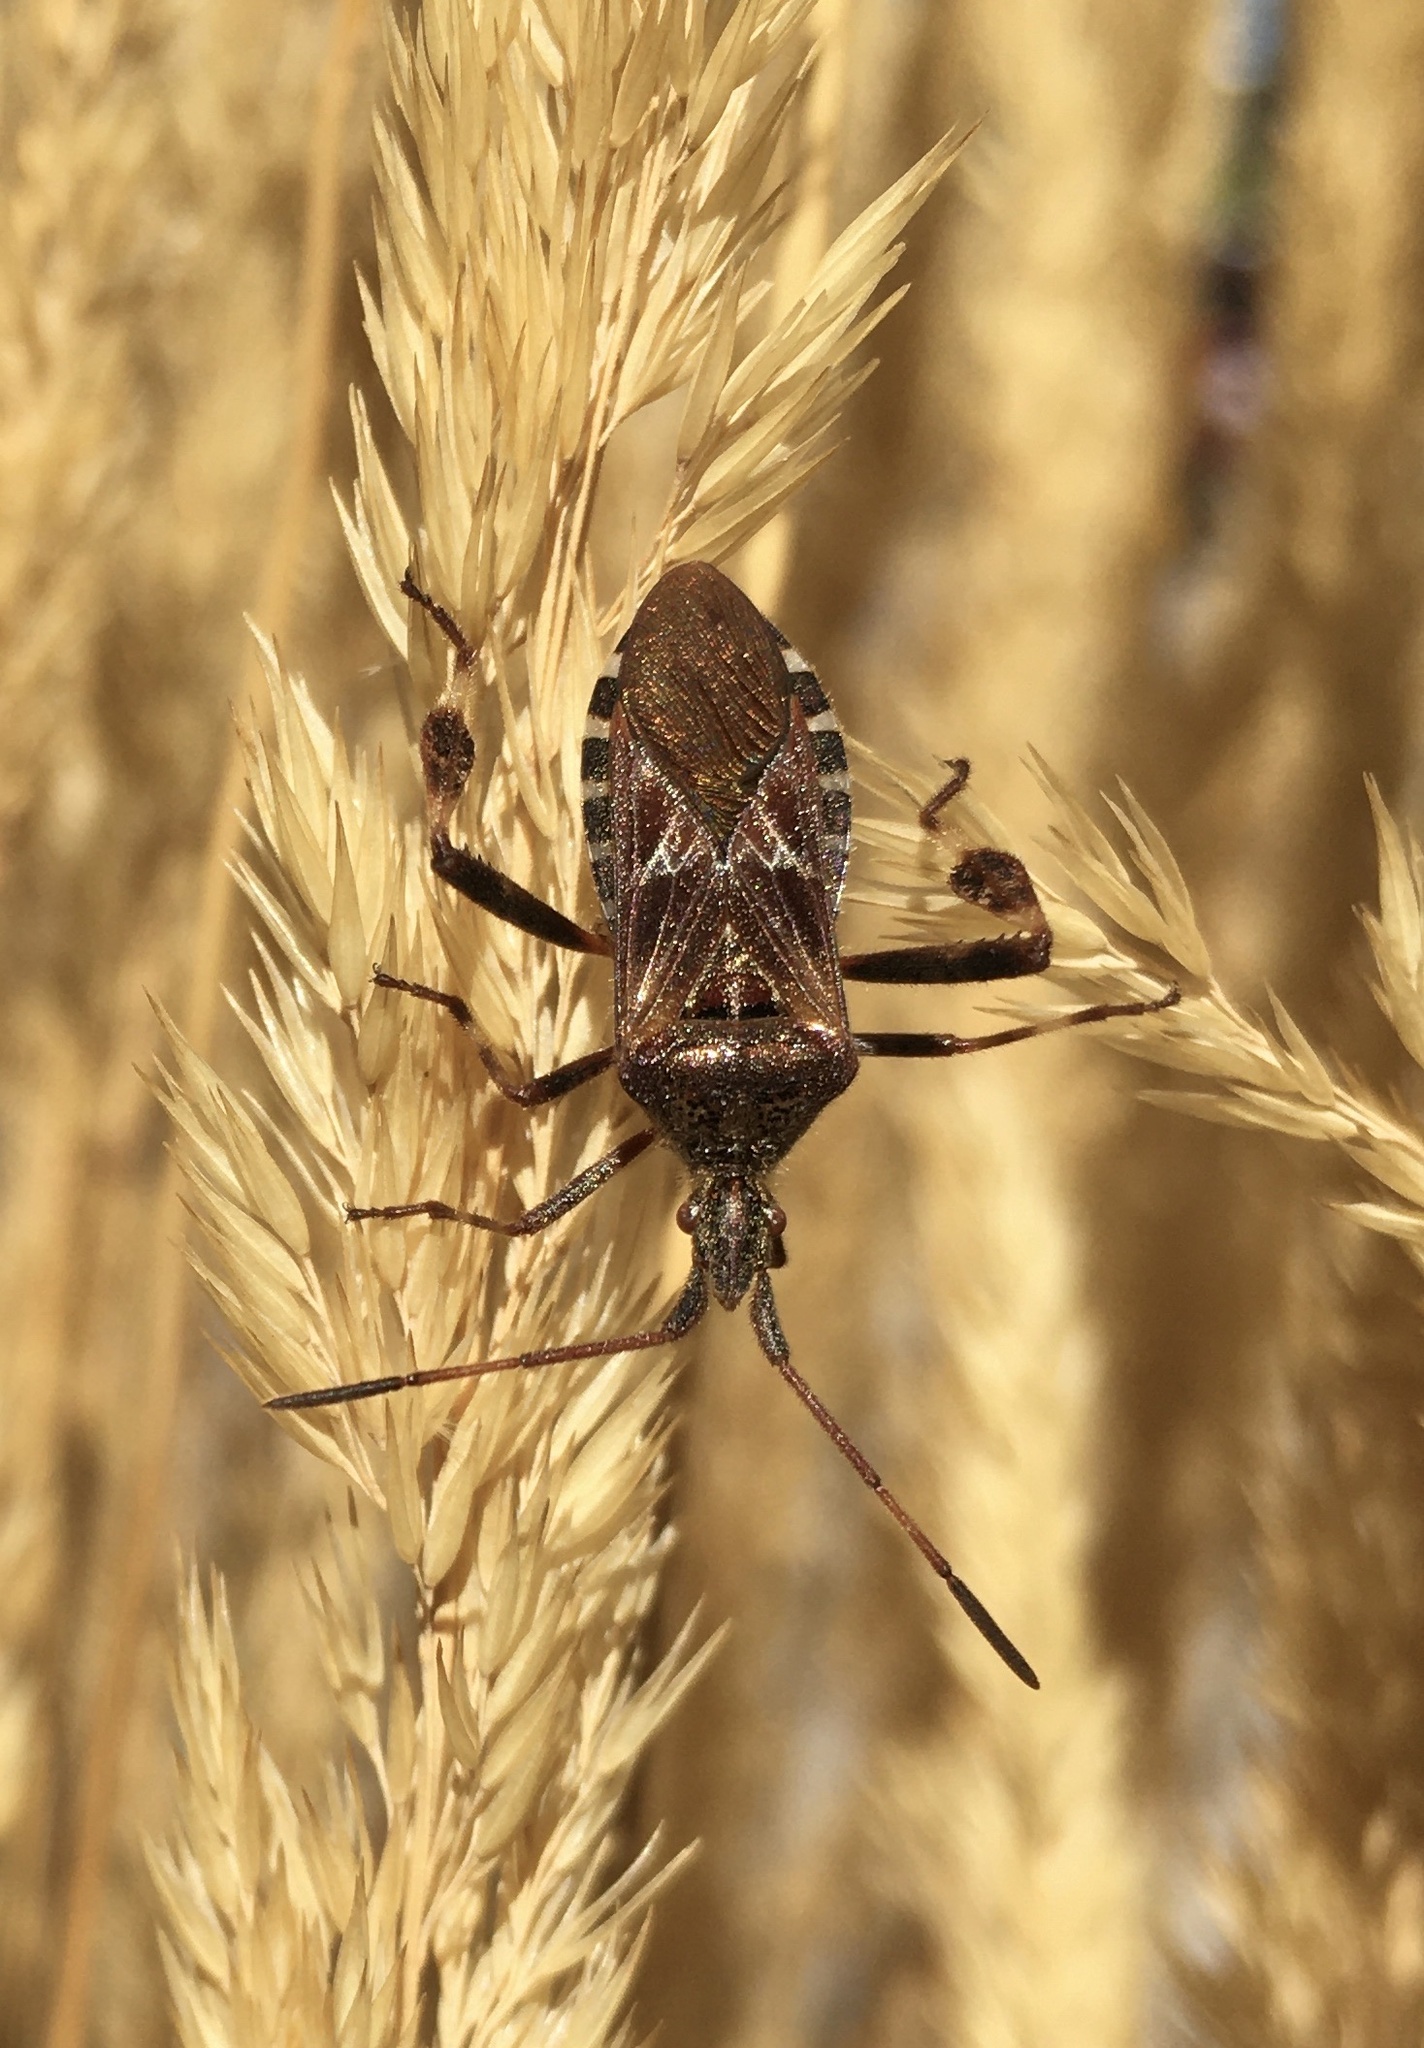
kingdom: Animalia
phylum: Arthropoda
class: Insecta
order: Hemiptera
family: Coreidae
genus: Leptoglossus
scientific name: Leptoglossus occidentalis
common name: Western conifer-seed bug
